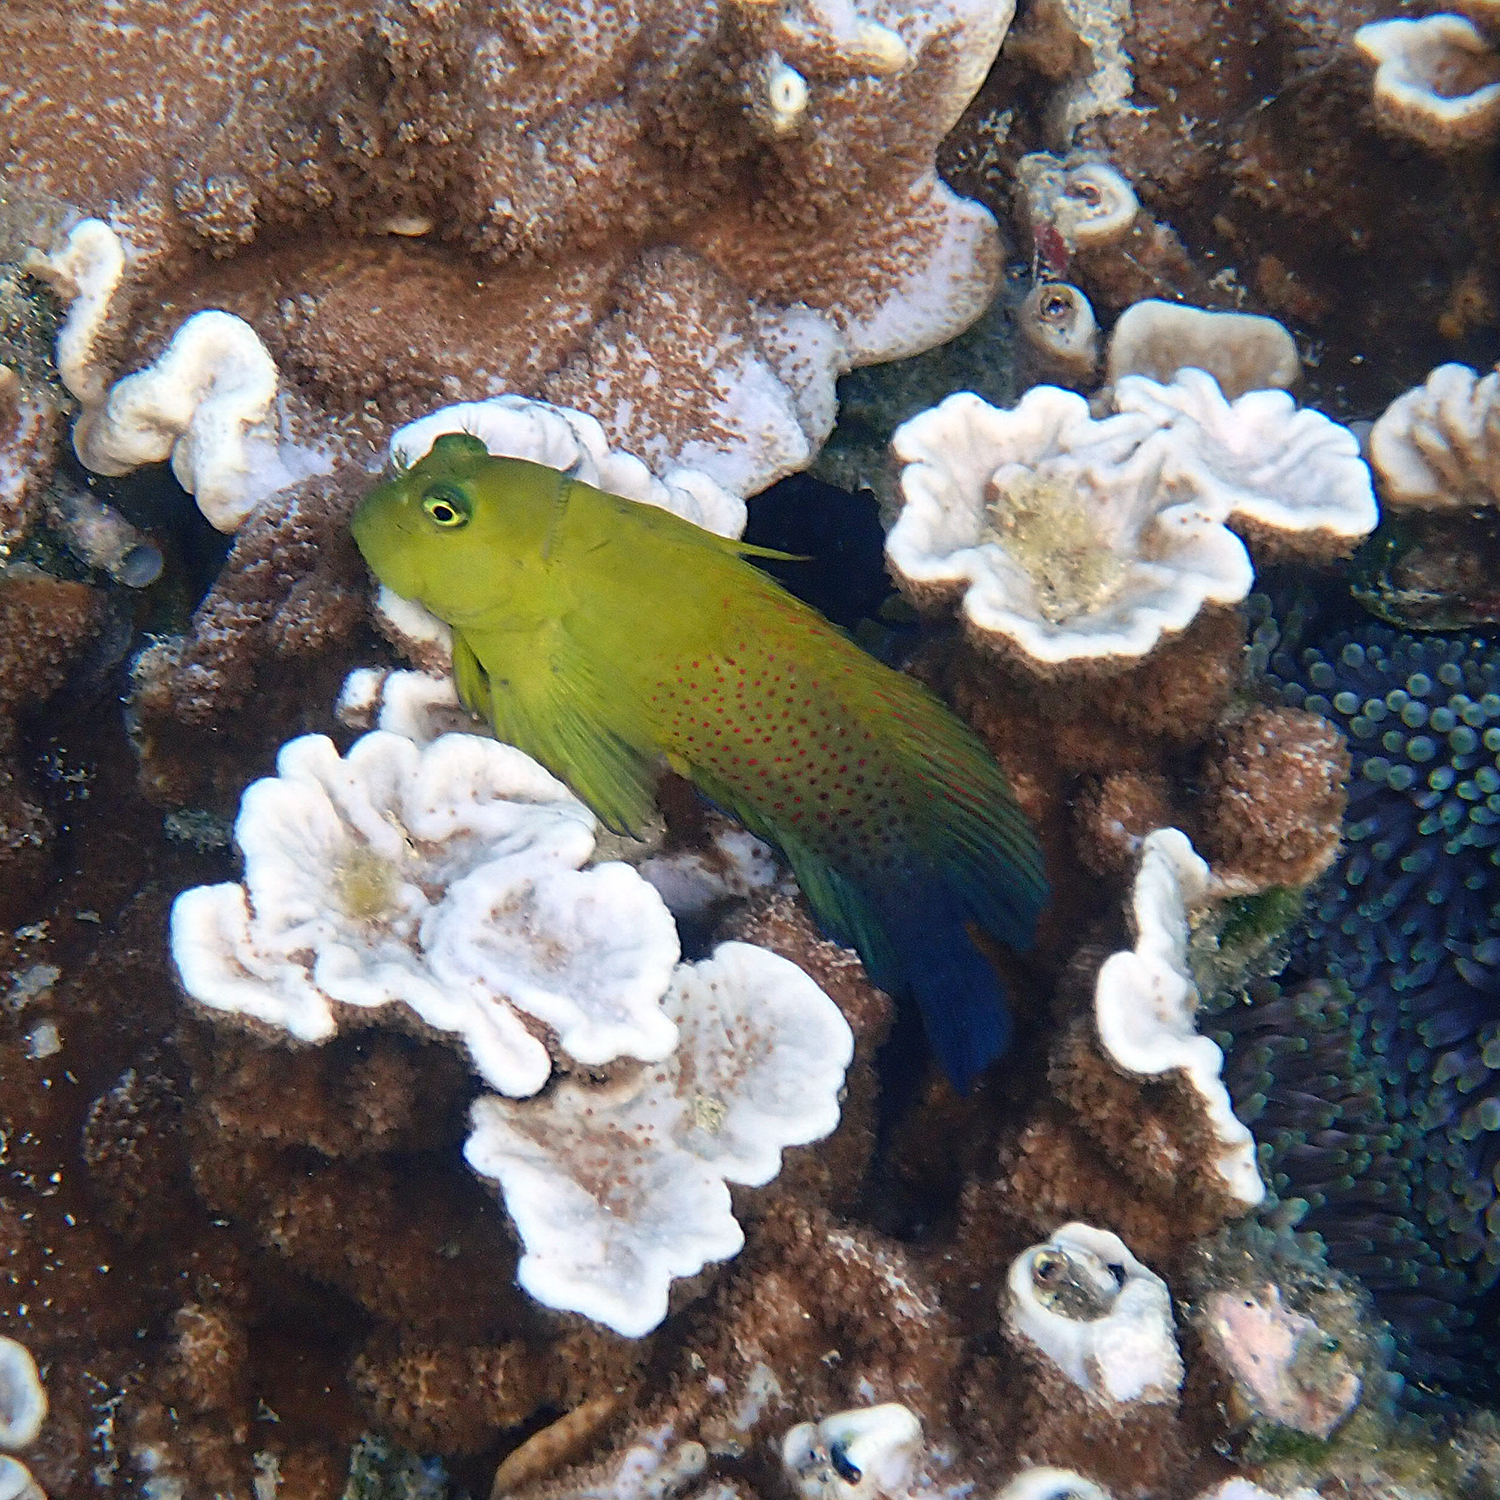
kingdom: Animalia
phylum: Chordata
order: Perciformes
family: Blenniidae
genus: Cirripectes
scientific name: Cirripectes chelomatus
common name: Lady musgrave blenny
